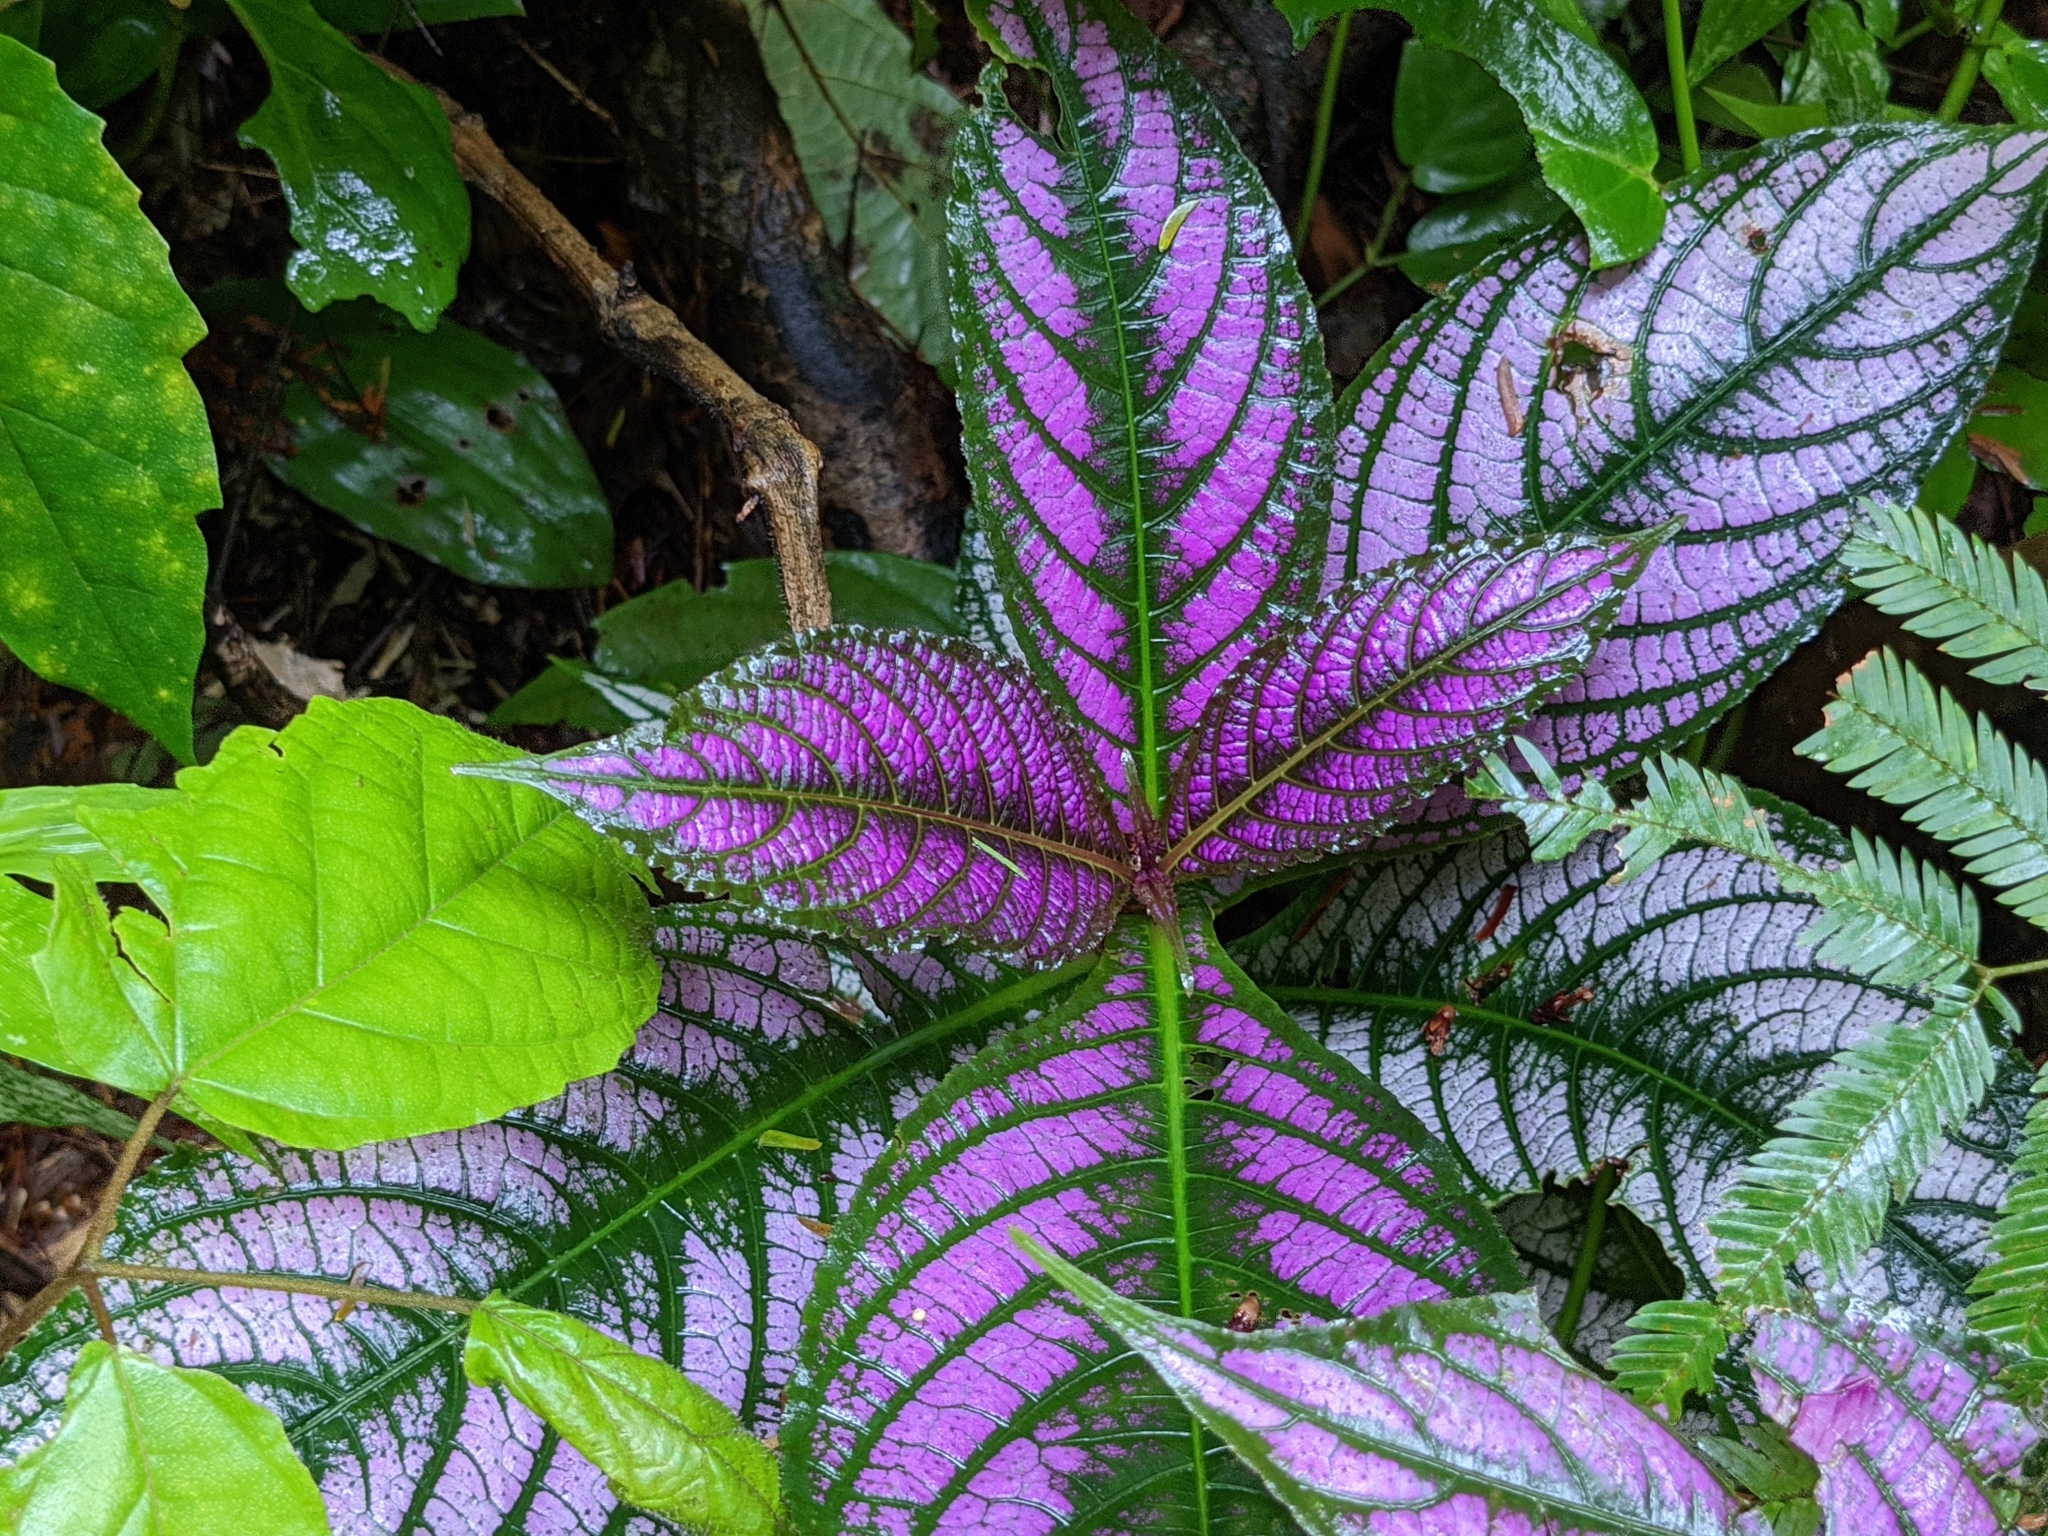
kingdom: Plantae
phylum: Tracheophyta
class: Magnoliopsida
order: Lamiales
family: Acanthaceae
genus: Strobilanthes
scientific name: Strobilanthes auriculata
